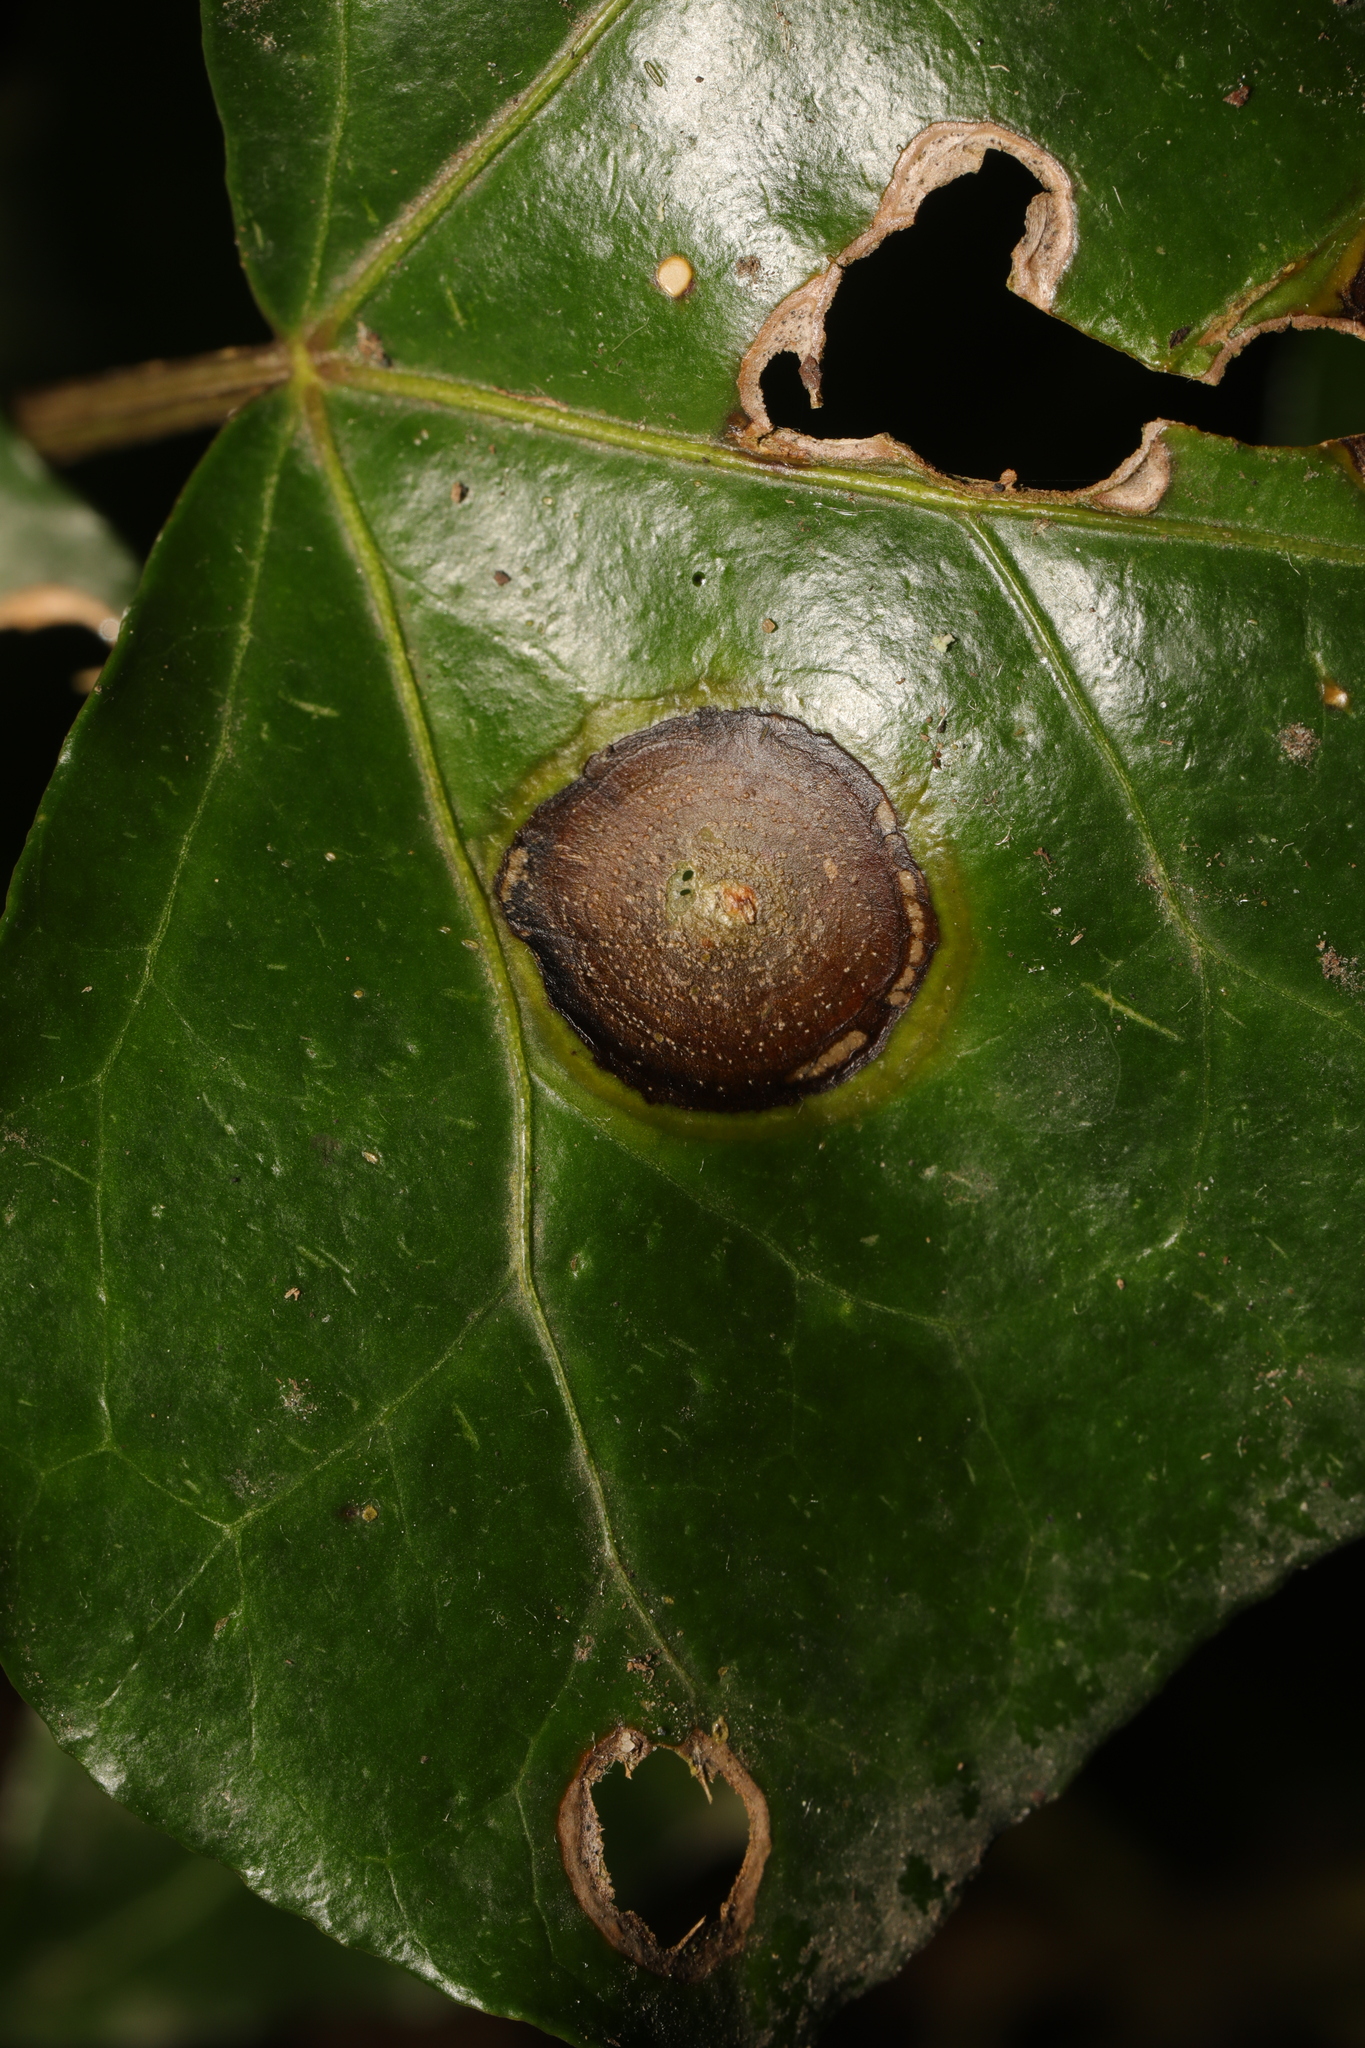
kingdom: Fungi
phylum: Ascomycota
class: Dothideomycetes
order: Pleosporales
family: Didymellaceae
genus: Boeremia
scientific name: Boeremia hedericola
